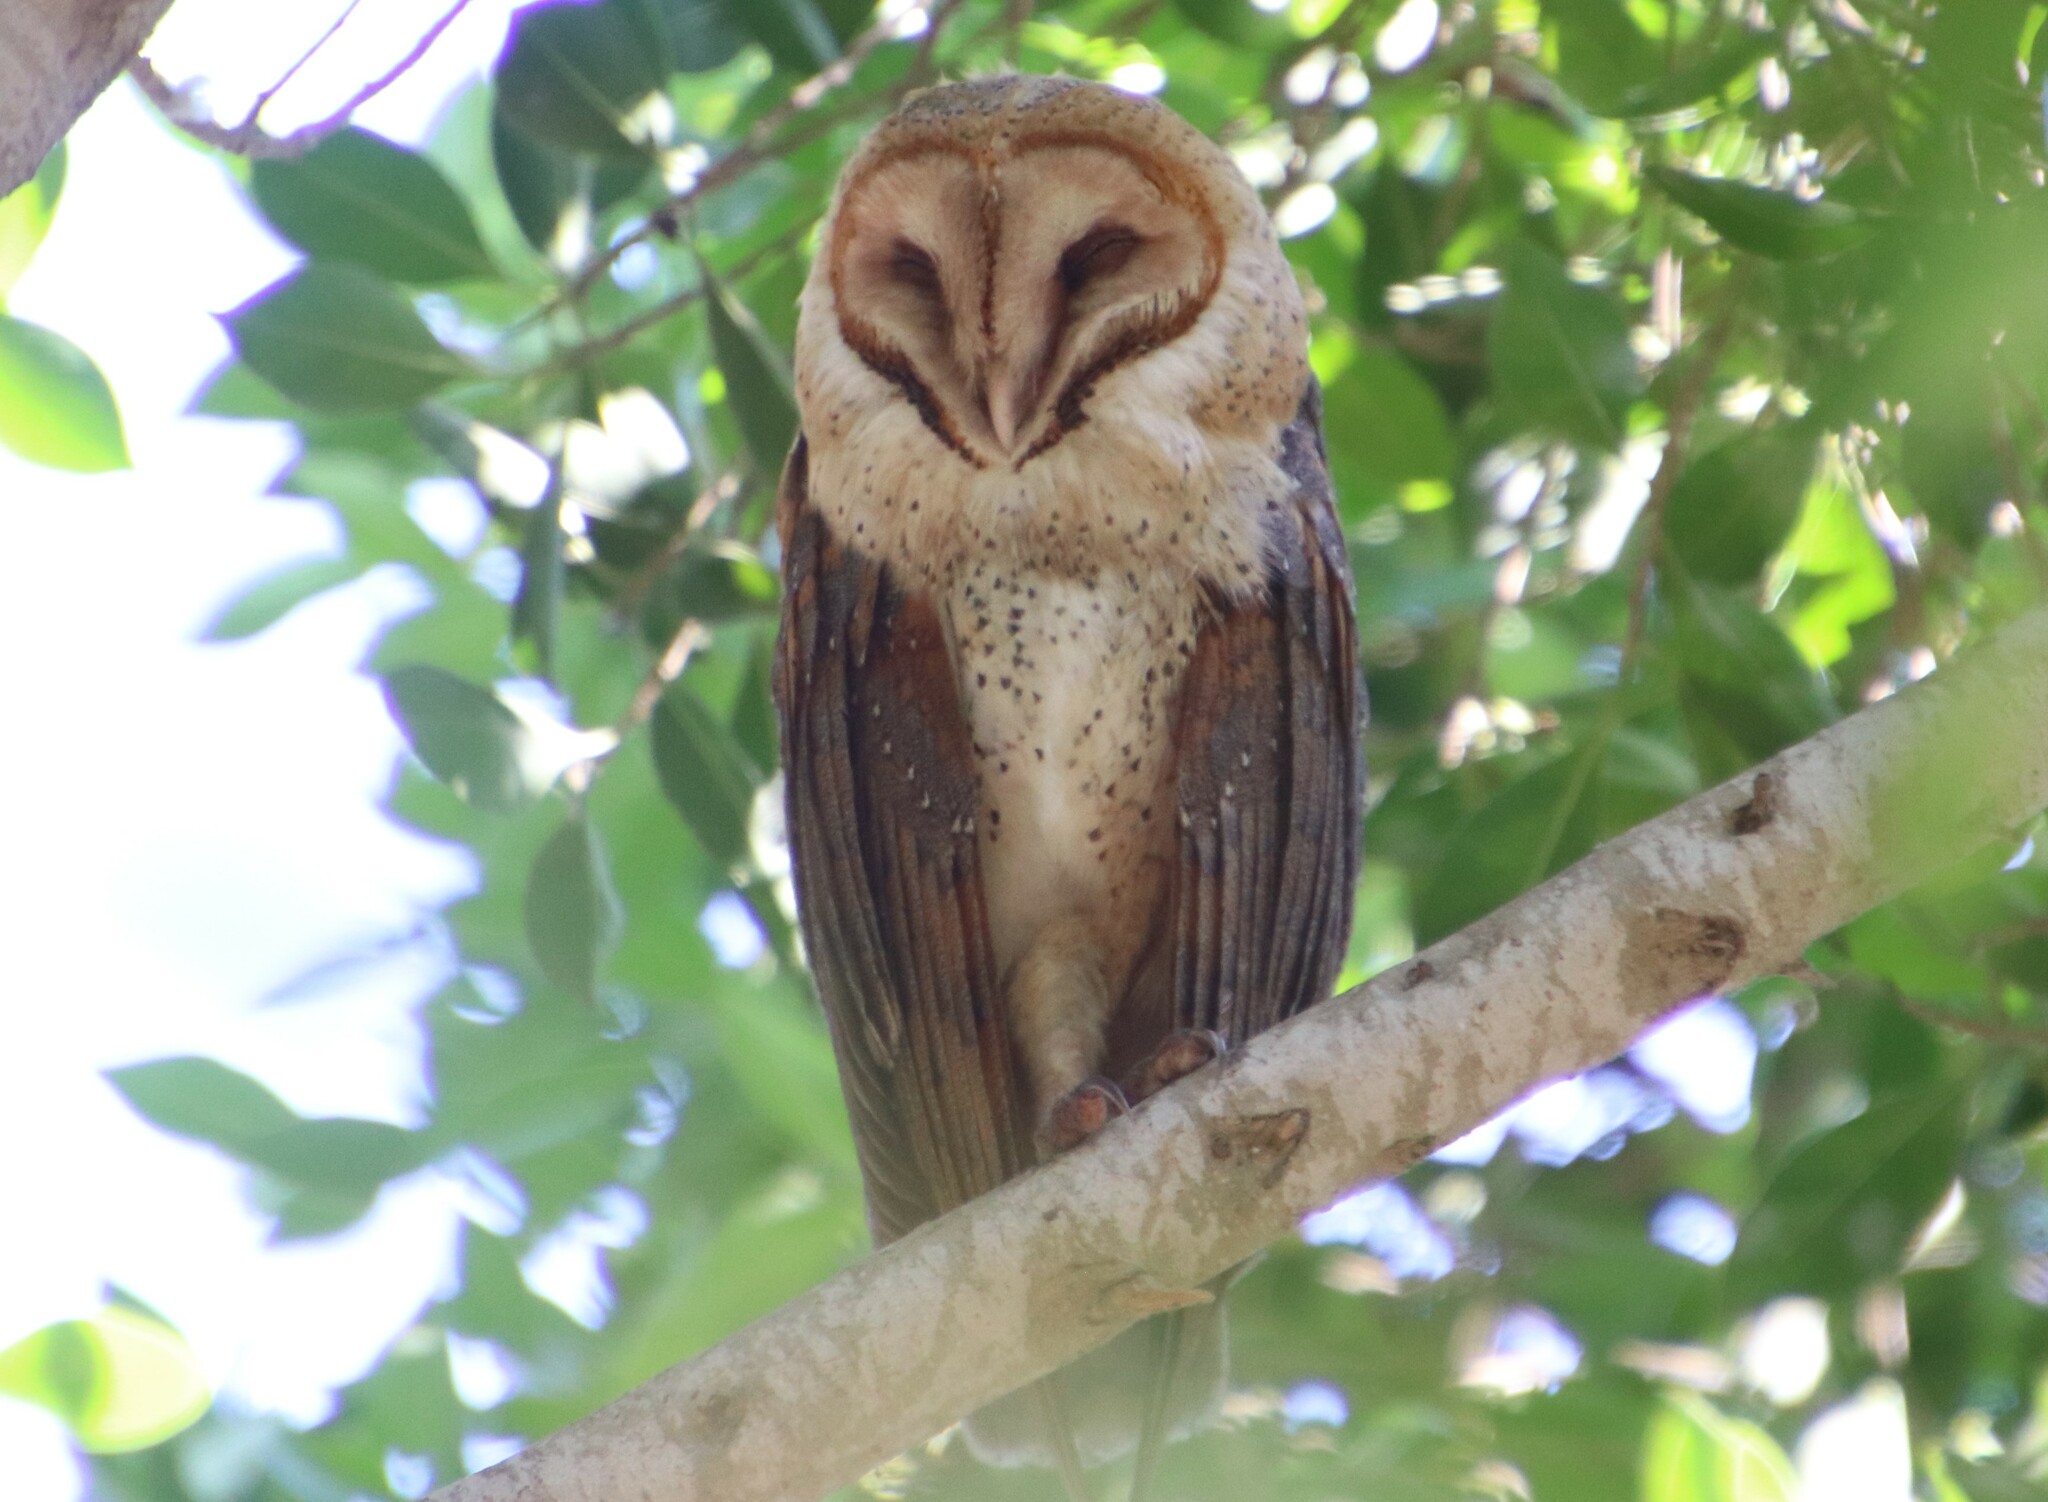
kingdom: Animalia
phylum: Chordata
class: Aves
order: Strigiformes
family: Tytonidae
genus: Tyto
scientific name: Tyto alba
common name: Barn owl
